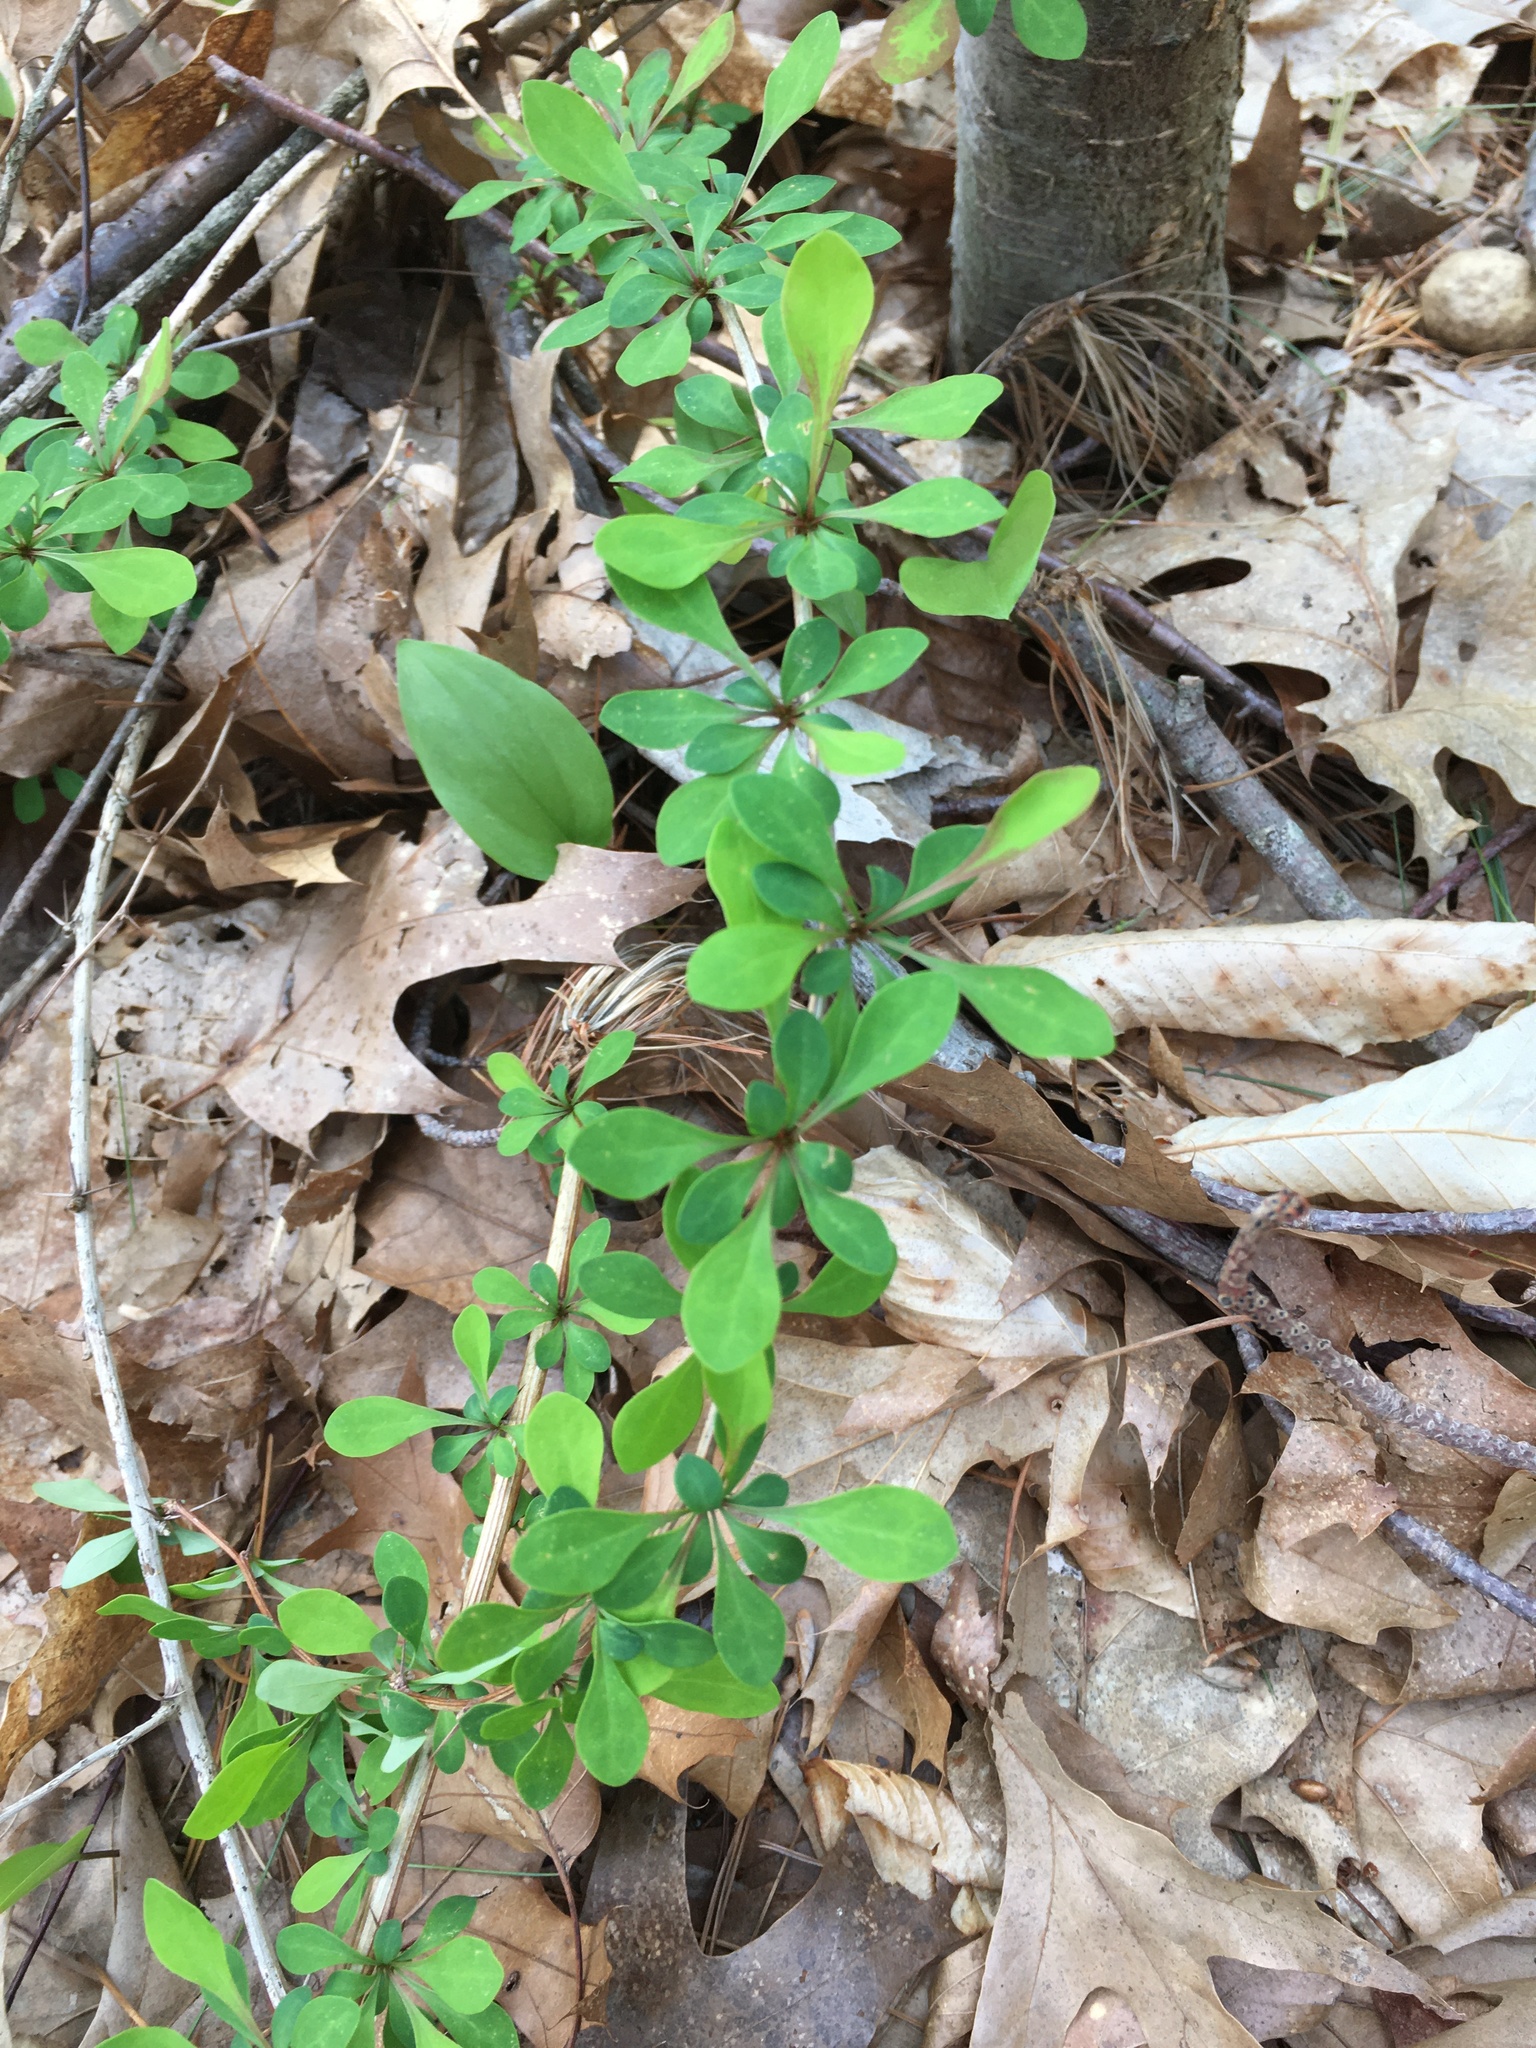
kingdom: Plantae
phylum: Tracheophyta
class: Magnoliopsida
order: Ranunculales
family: Berberidaceae
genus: Berberis
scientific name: Berberis thunbergii
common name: Japanese barberry
